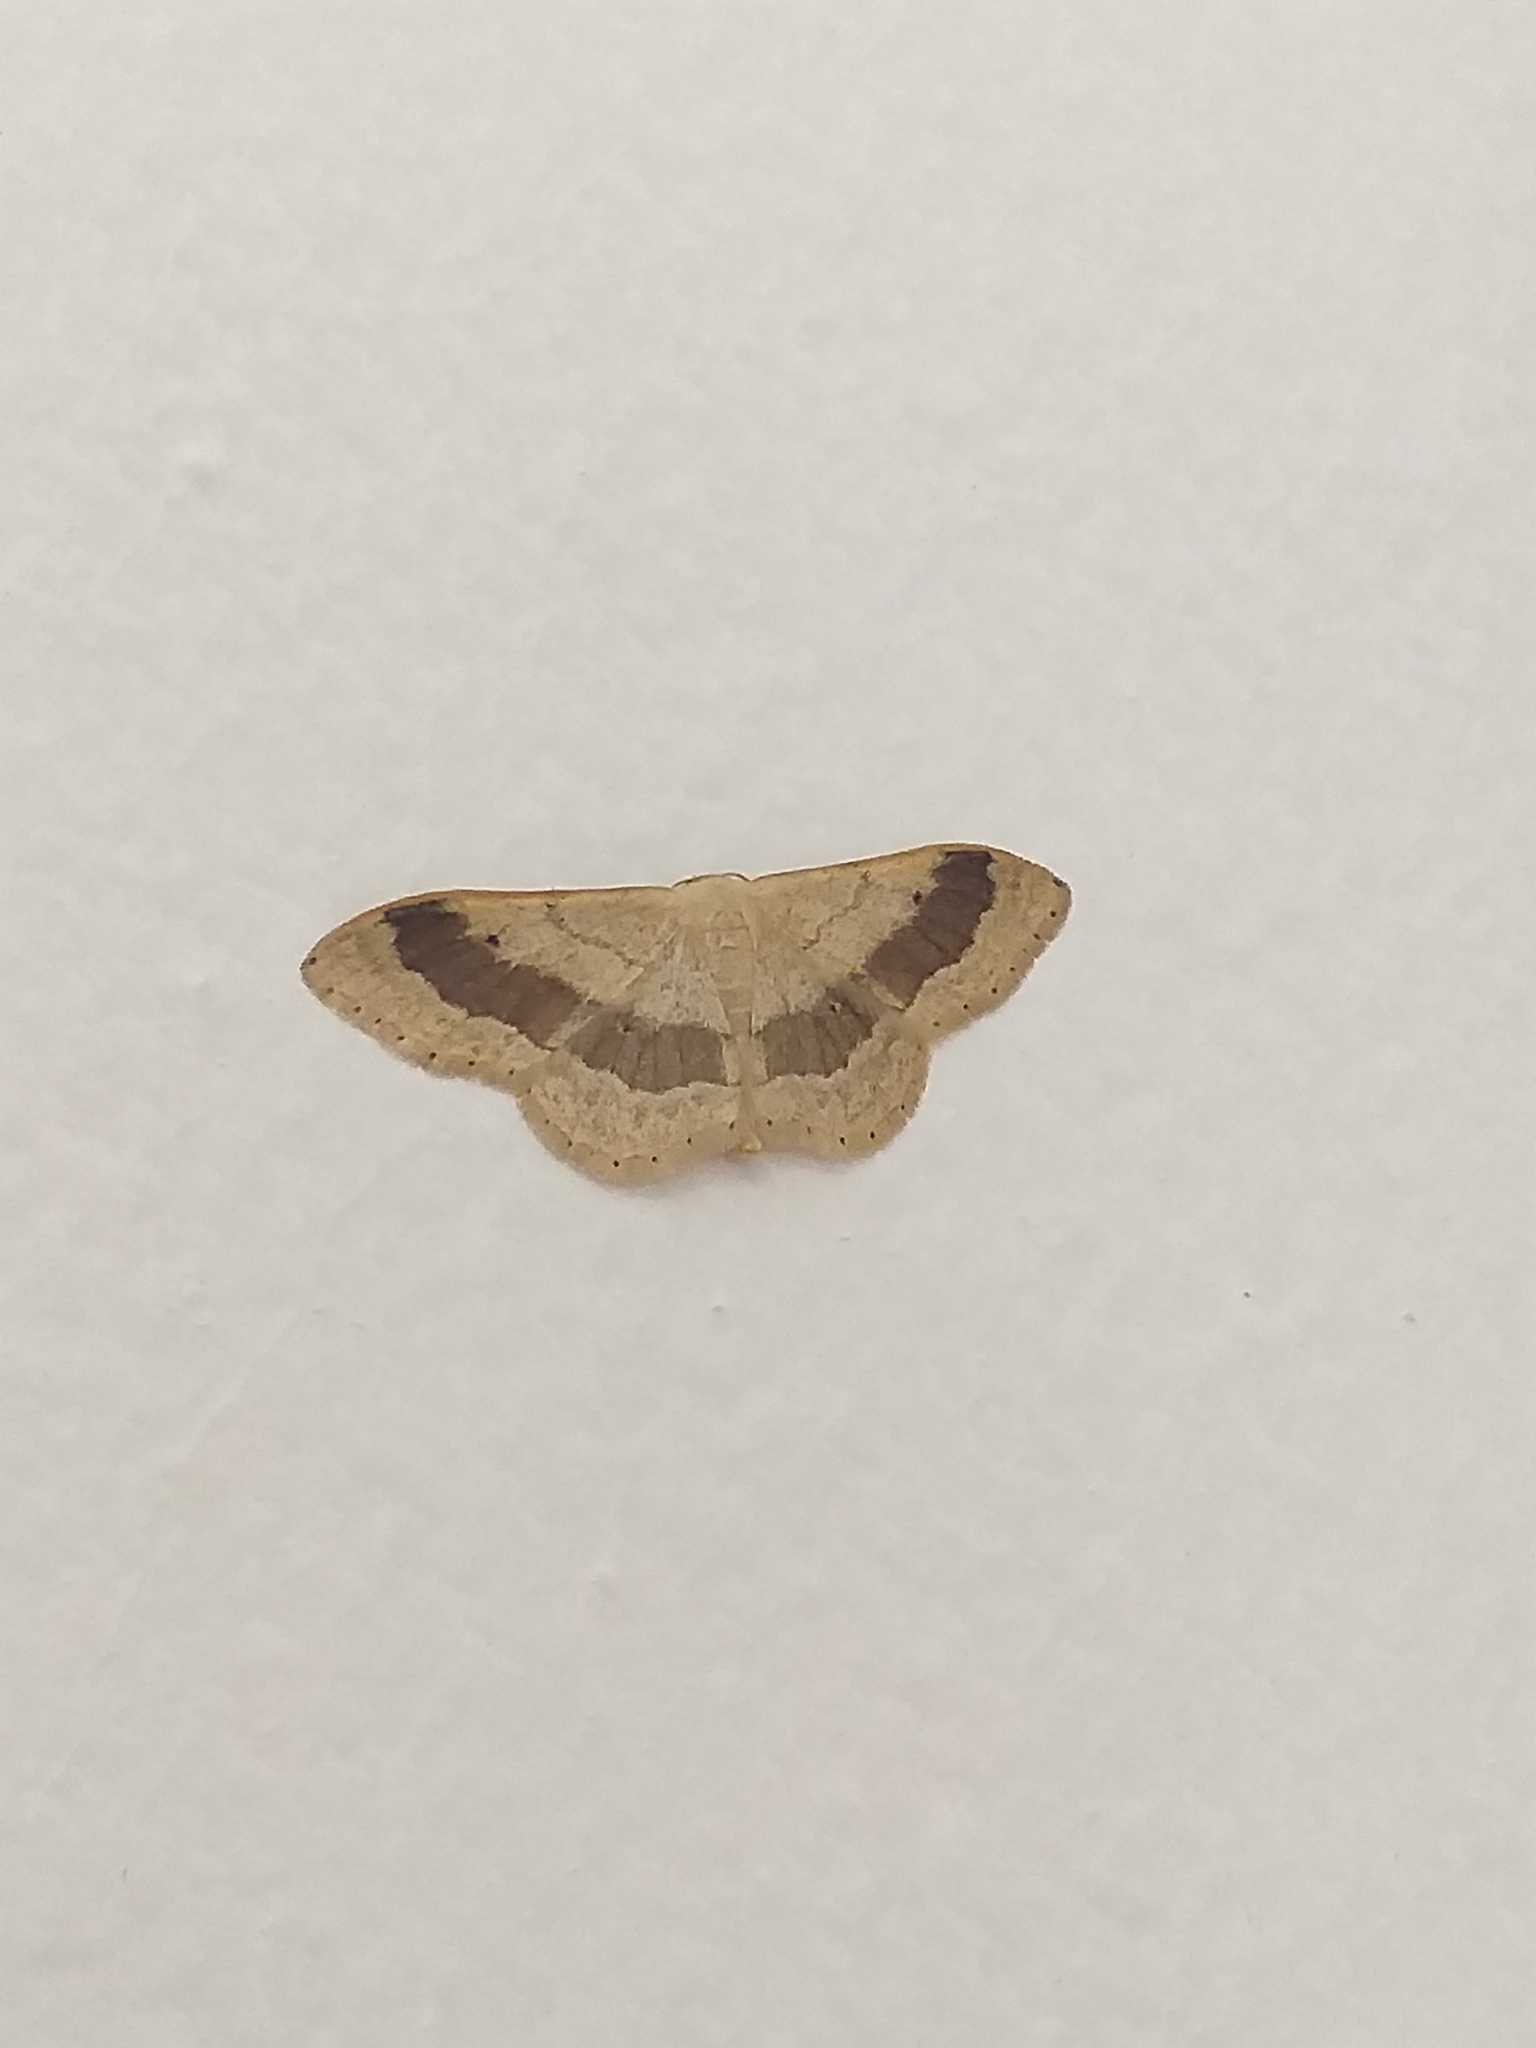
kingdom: Animalia
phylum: Arthropoda
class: Insecta
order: Lepidoptera
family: Geometridae
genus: Idaea
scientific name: Idaea aversata
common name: Riband wave
